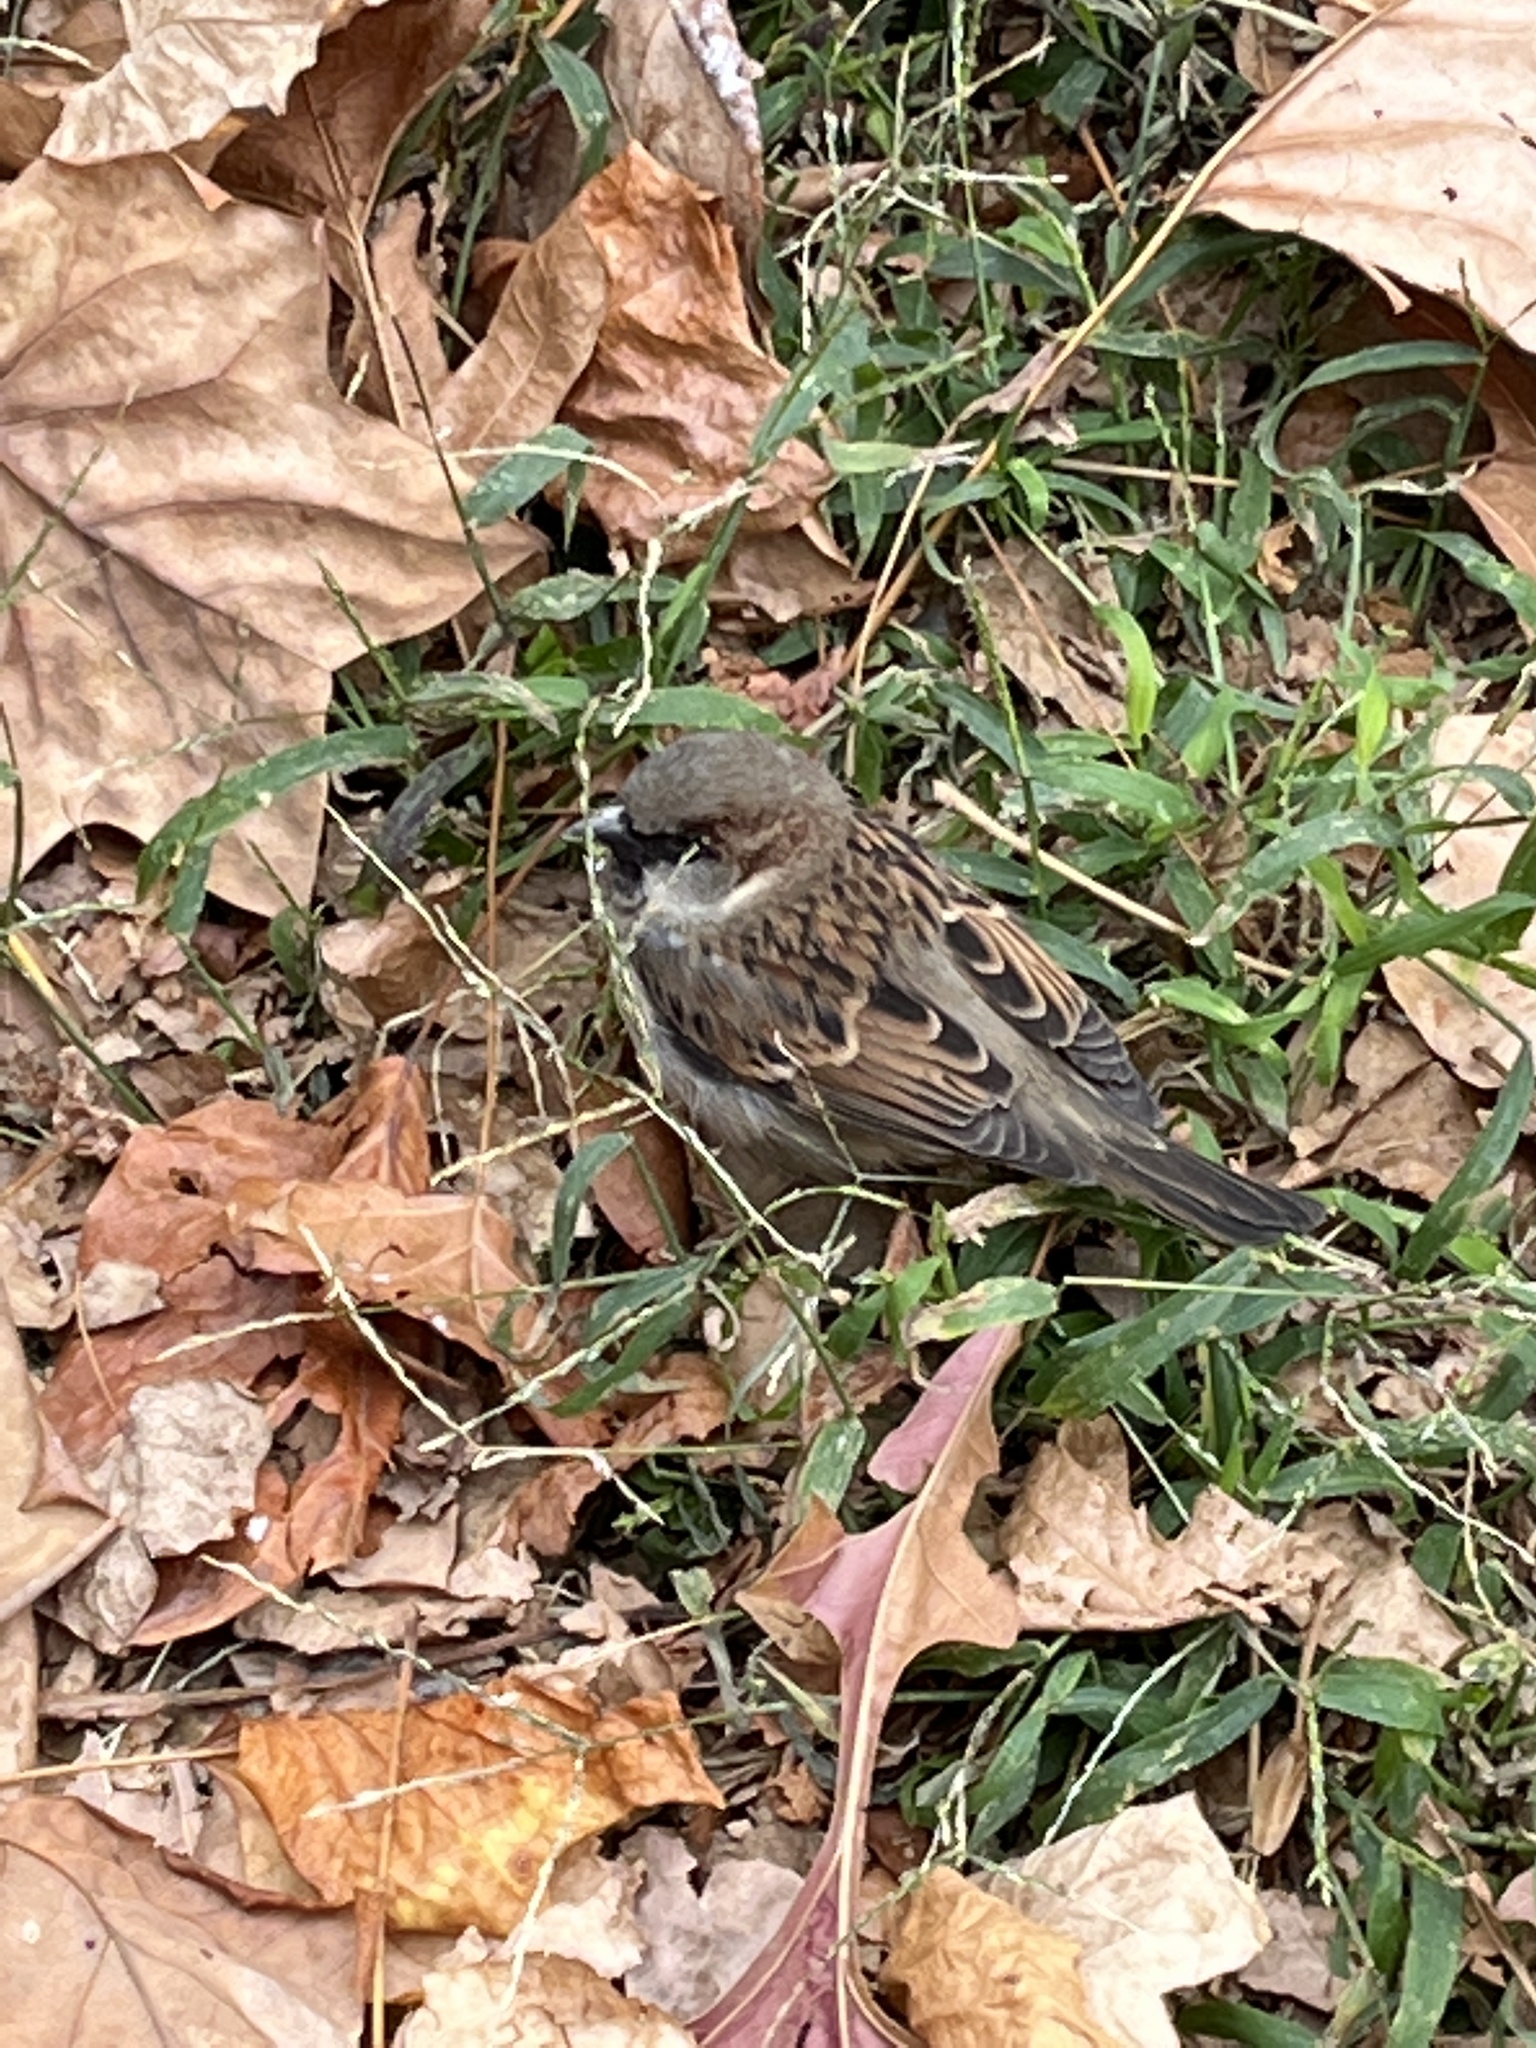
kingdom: Animalia
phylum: Chordata
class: Aves
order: Passeriformes
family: Passeridae
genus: Passer
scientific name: Passer domesticus
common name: House sparrow
